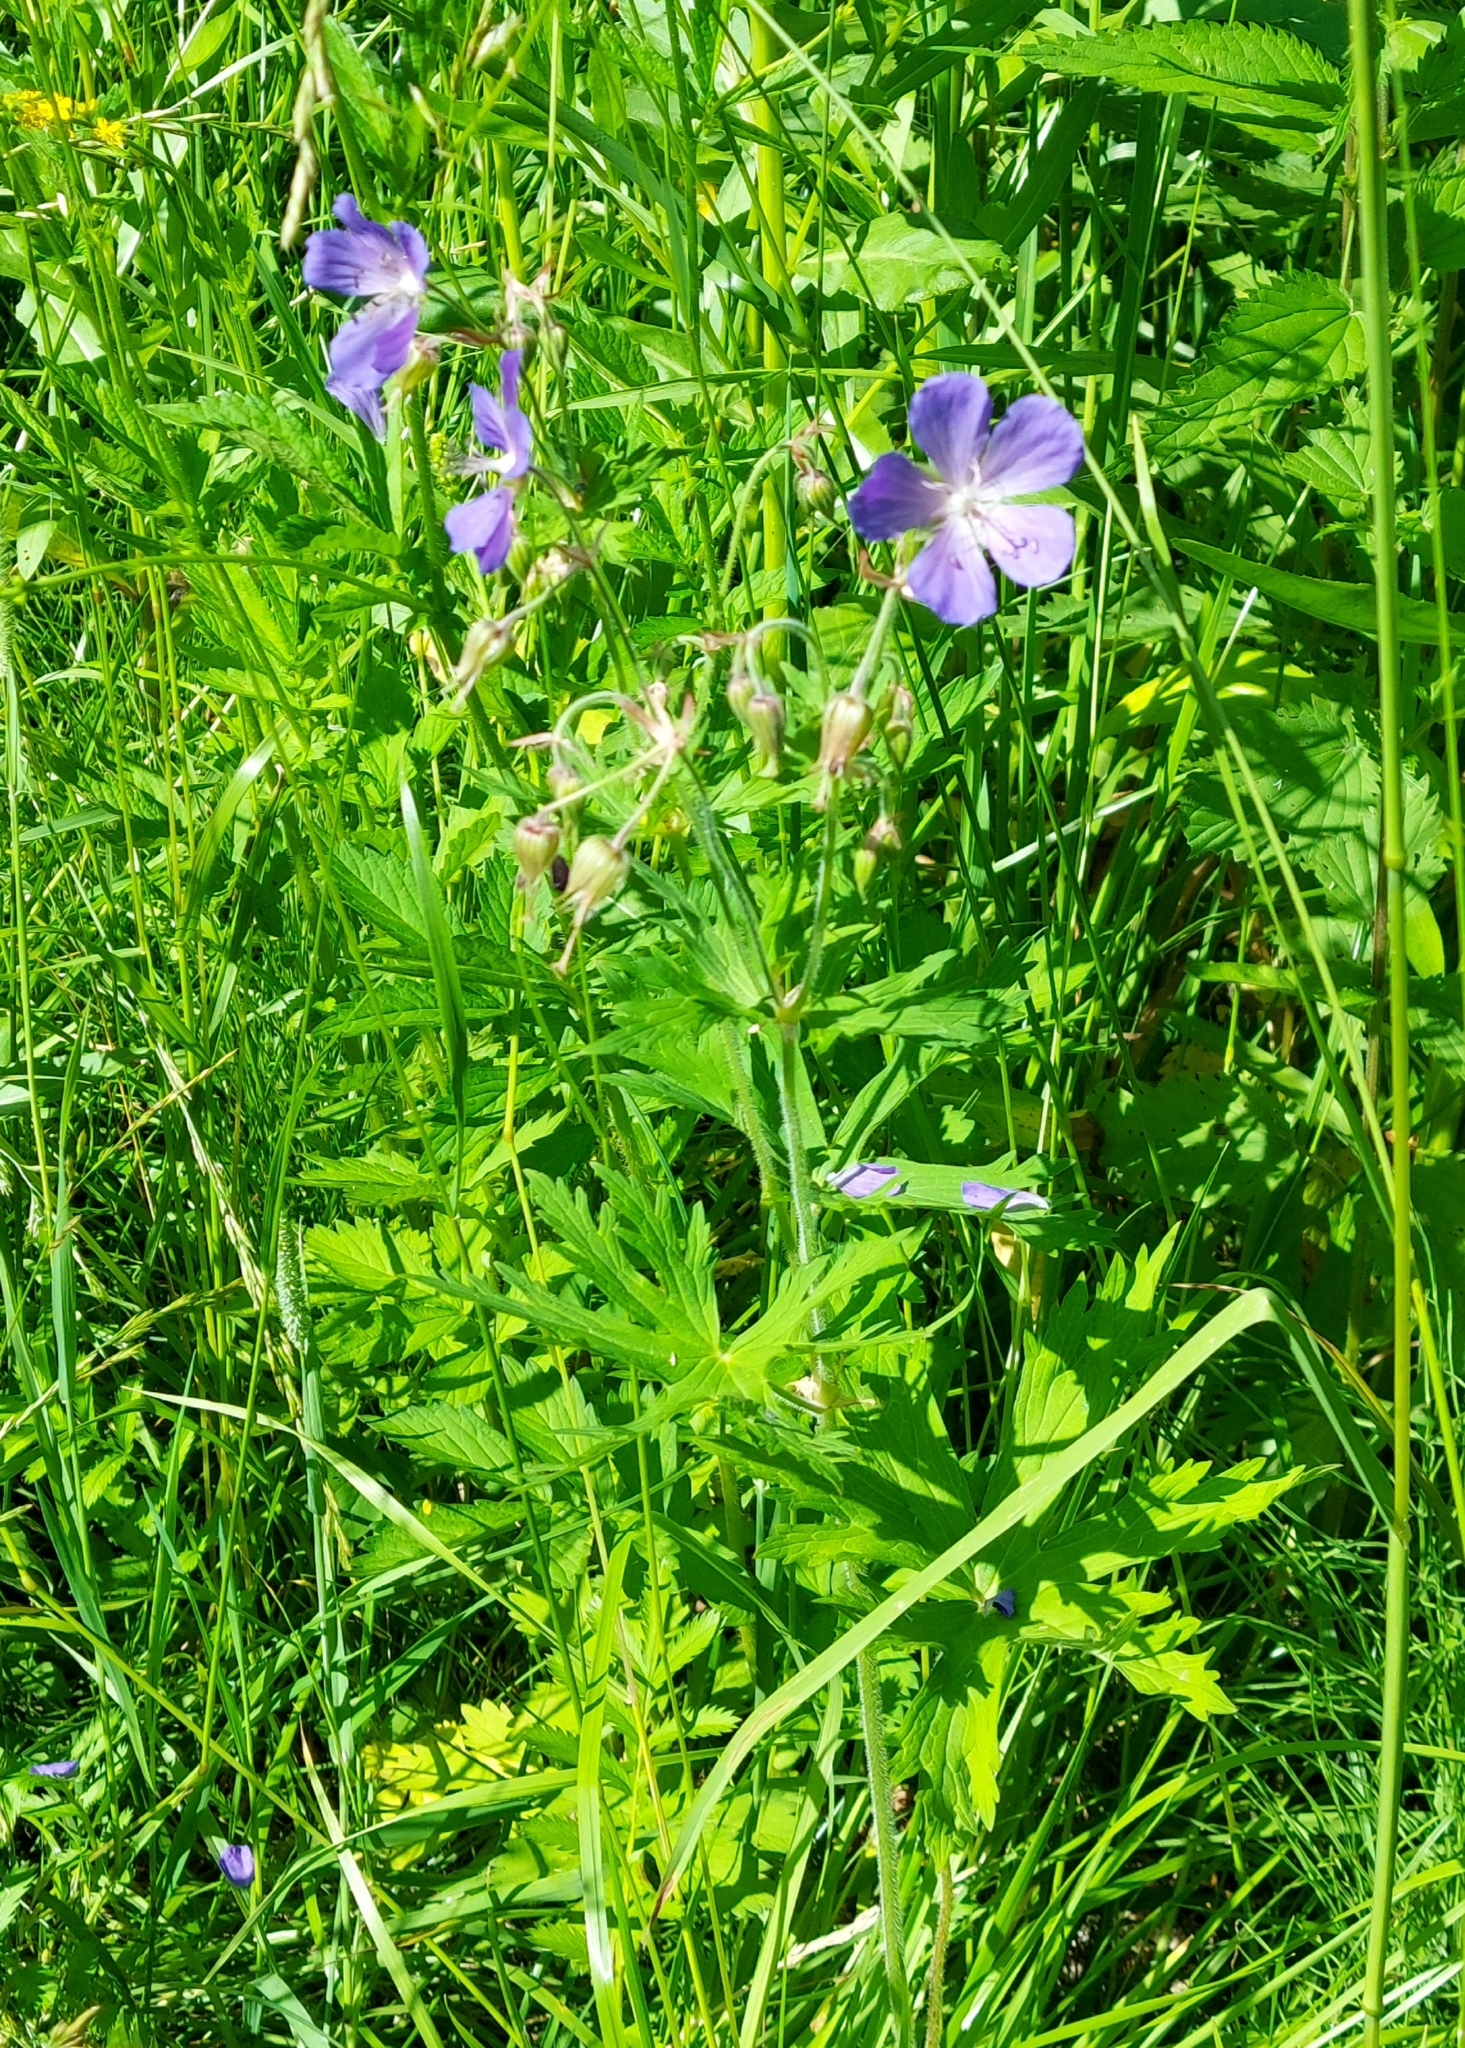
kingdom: Plantae
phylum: Tracheophyta
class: Magnoliopsida
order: Geraniales
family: Geraniaceae
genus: Geranium
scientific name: Geranium pratense
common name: Meadow crane's-bill
